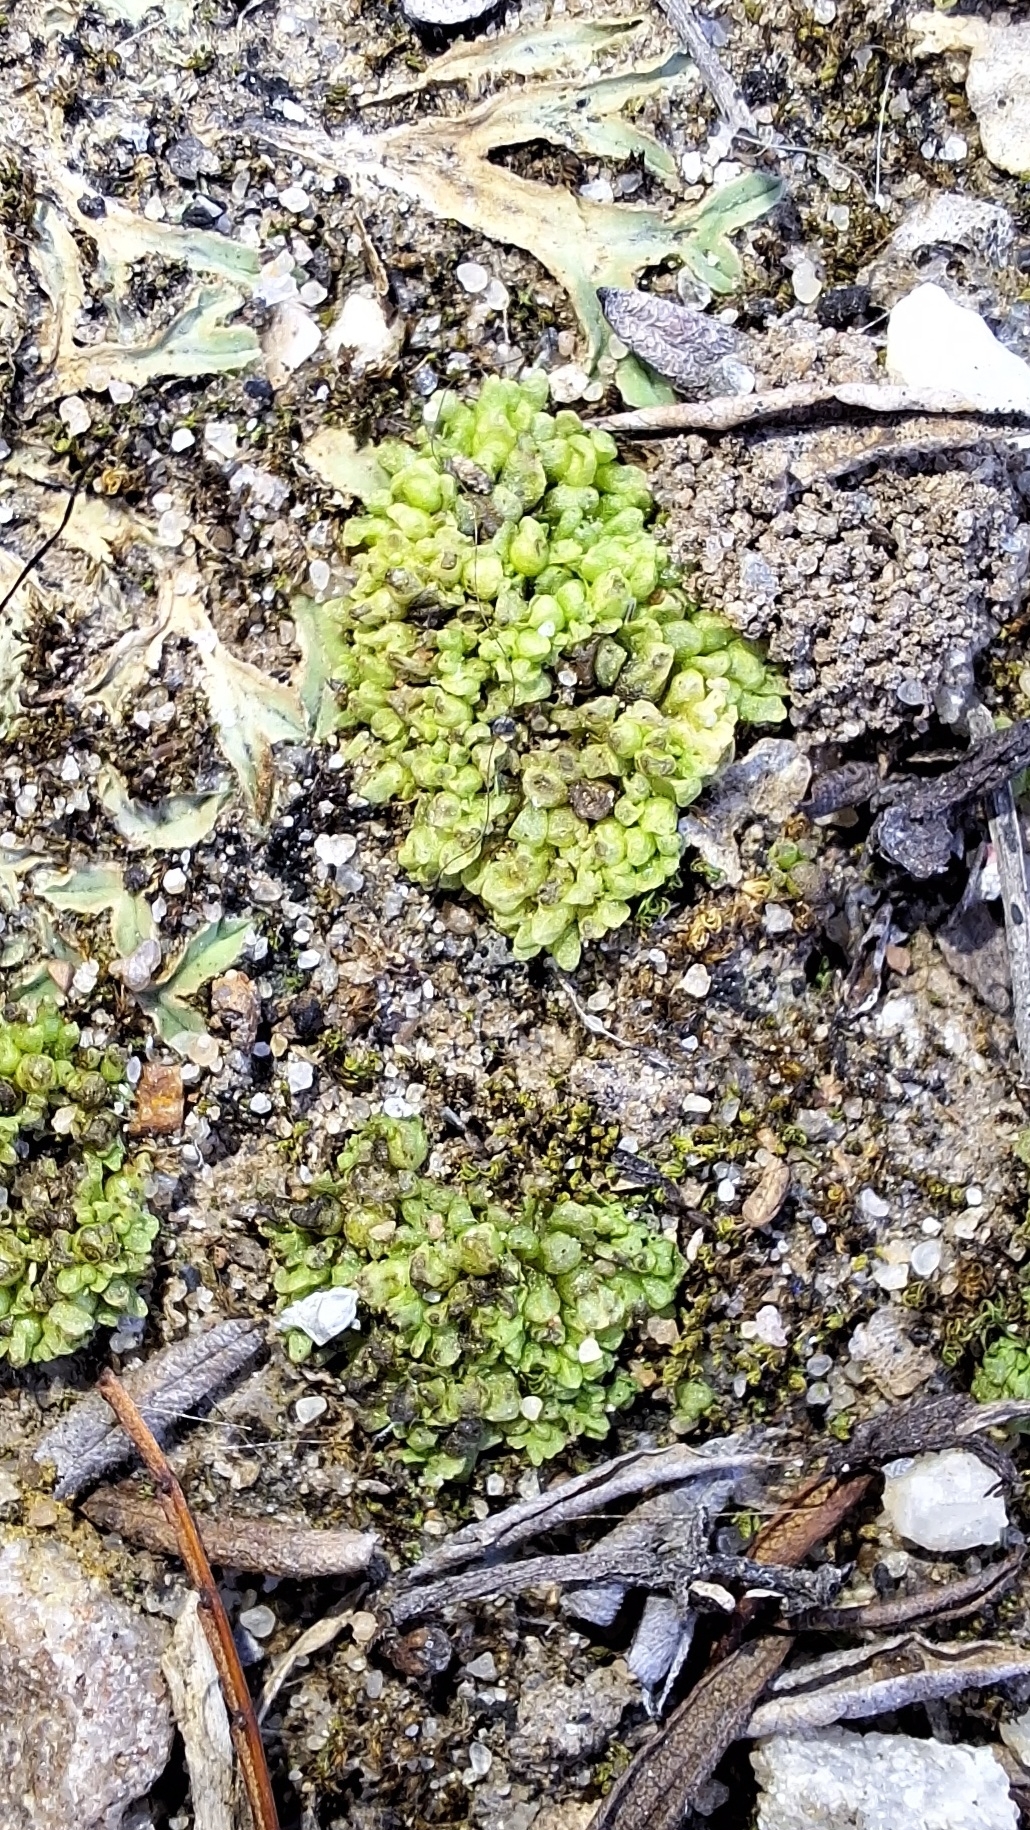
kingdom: Plantae
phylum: Marchantiophyta
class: Marchantiopsida
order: Sphaerocarpales
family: Sphaerocarpaceae
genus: Sphaerocarpos
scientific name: Sphaerocarpos texanus
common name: Texas balloonwort
